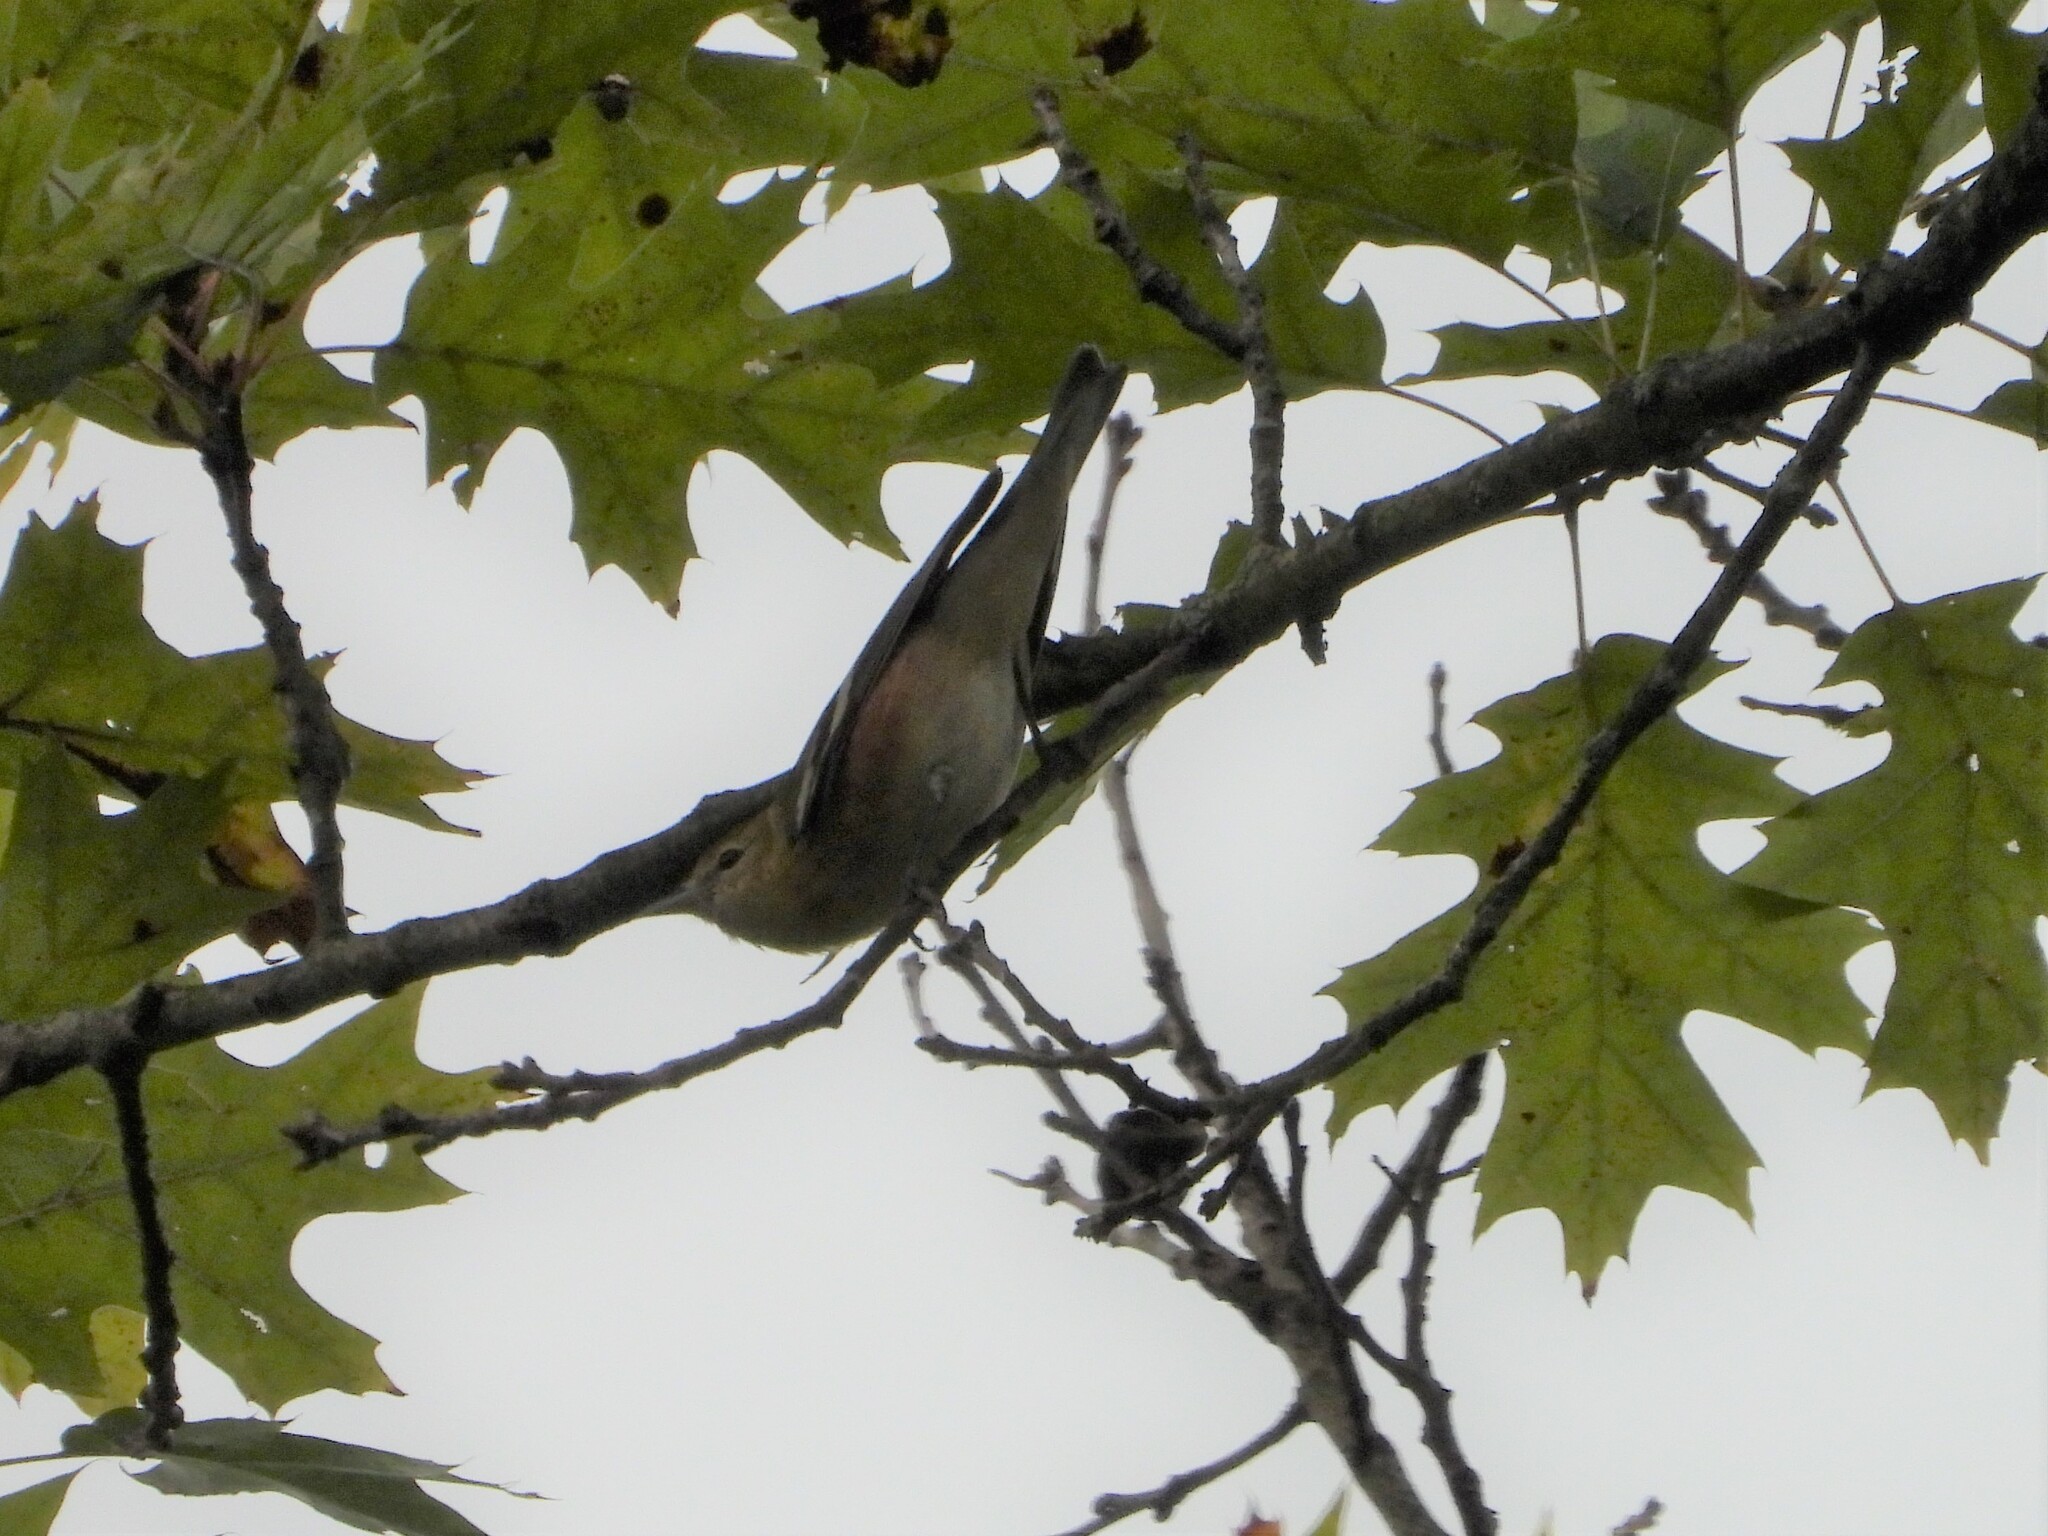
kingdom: Animalia
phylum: Chordata
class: Aves
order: Passeriformes
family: Parulidae
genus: Setophaga
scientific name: Setophaga castanea
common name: Bay-breasted warbler
